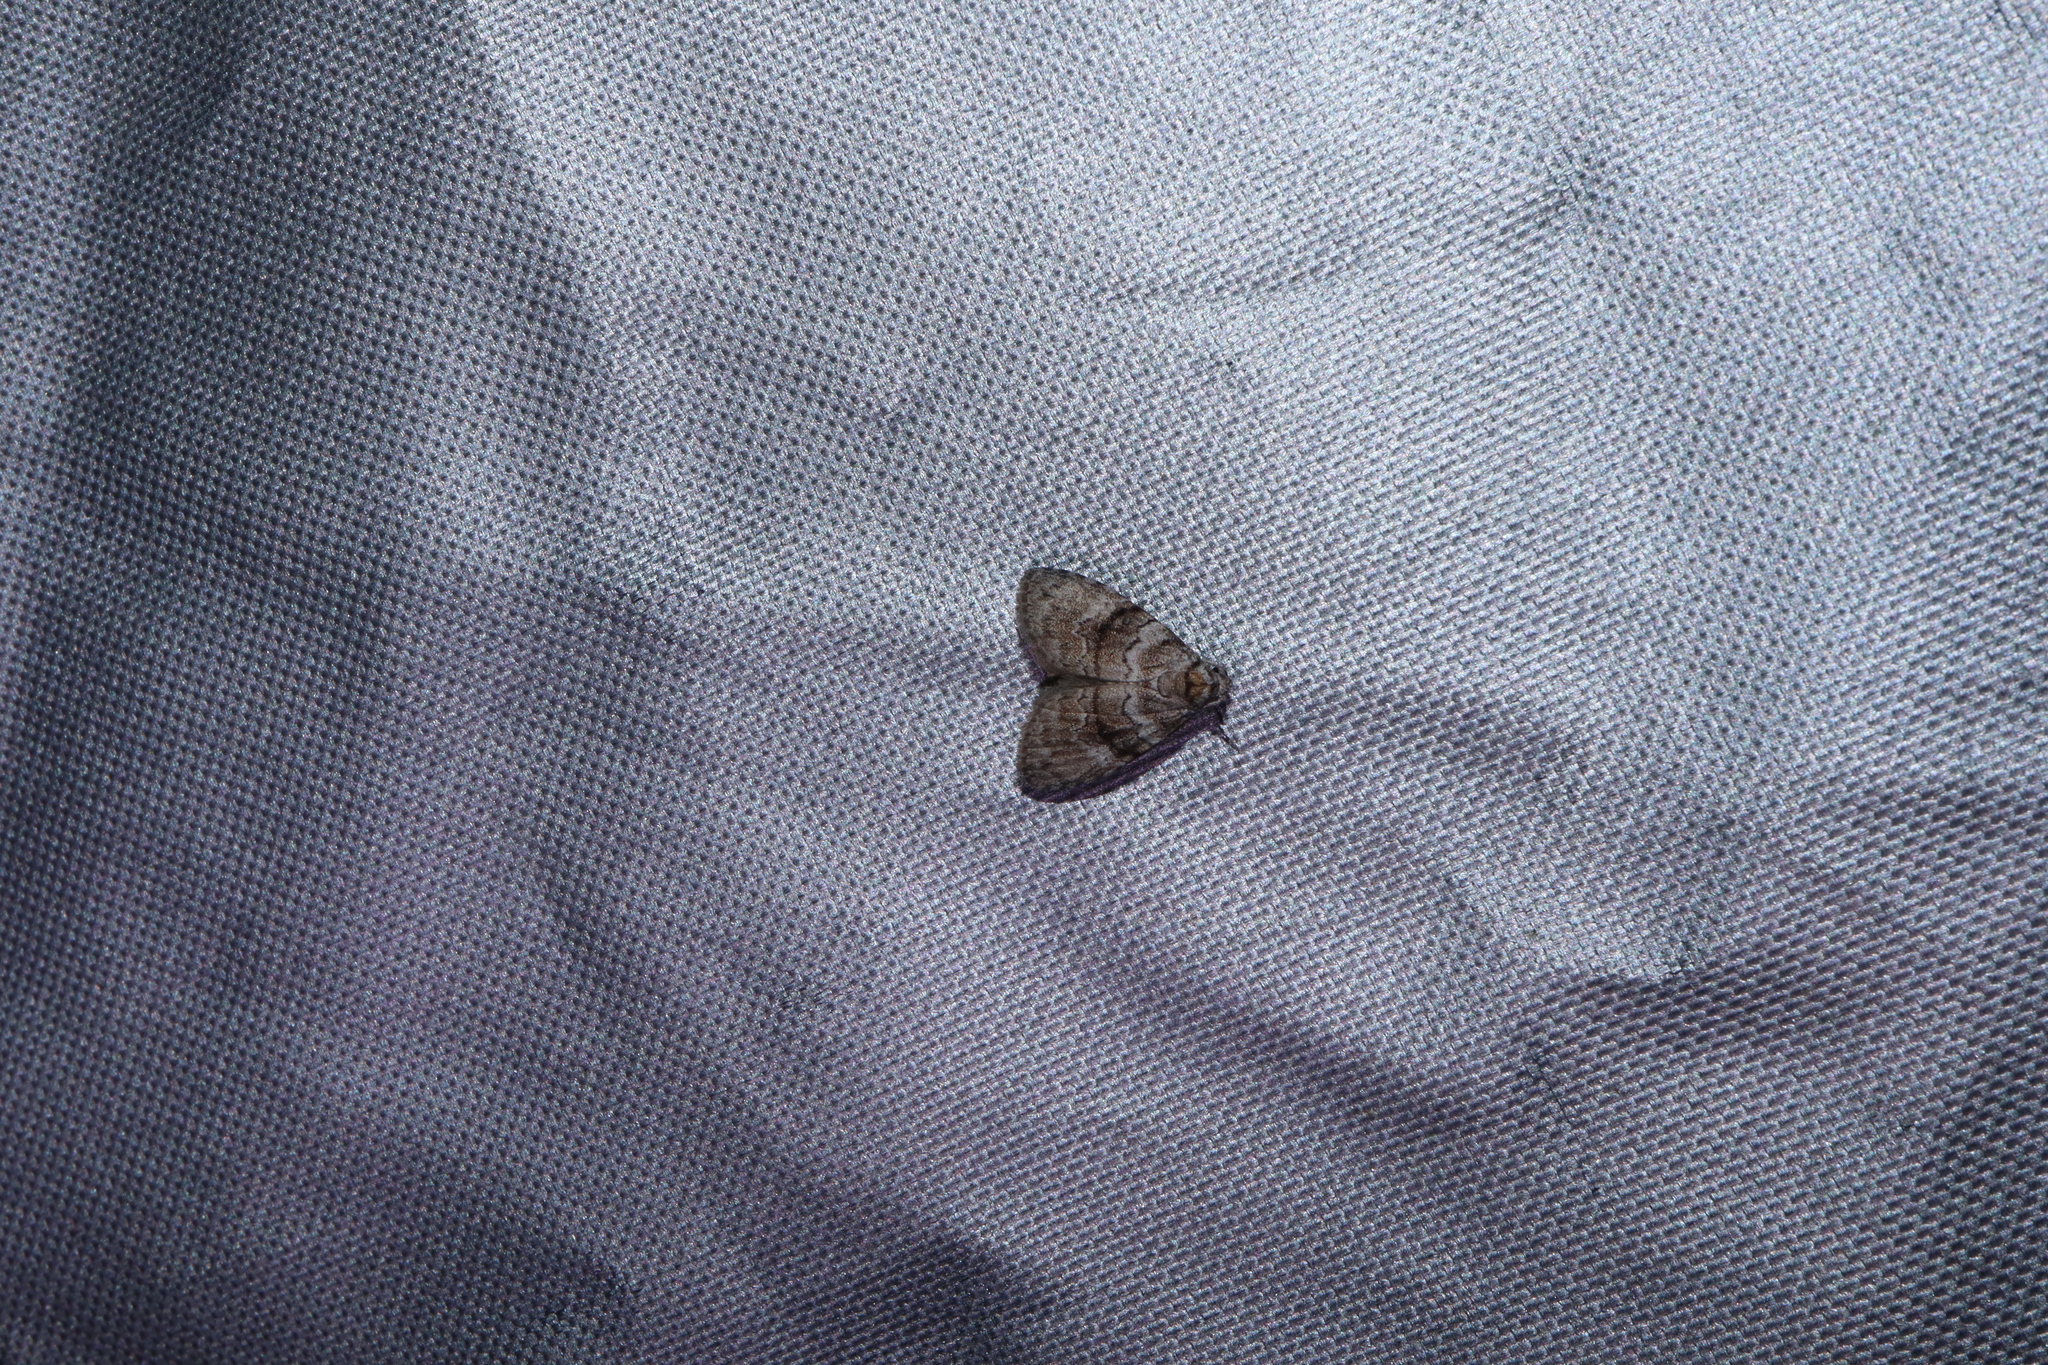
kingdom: Animalia
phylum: Arthropoda
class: Insecta
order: Lepidoptera
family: Nolidae
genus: Uraba
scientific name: Uraba lugens
